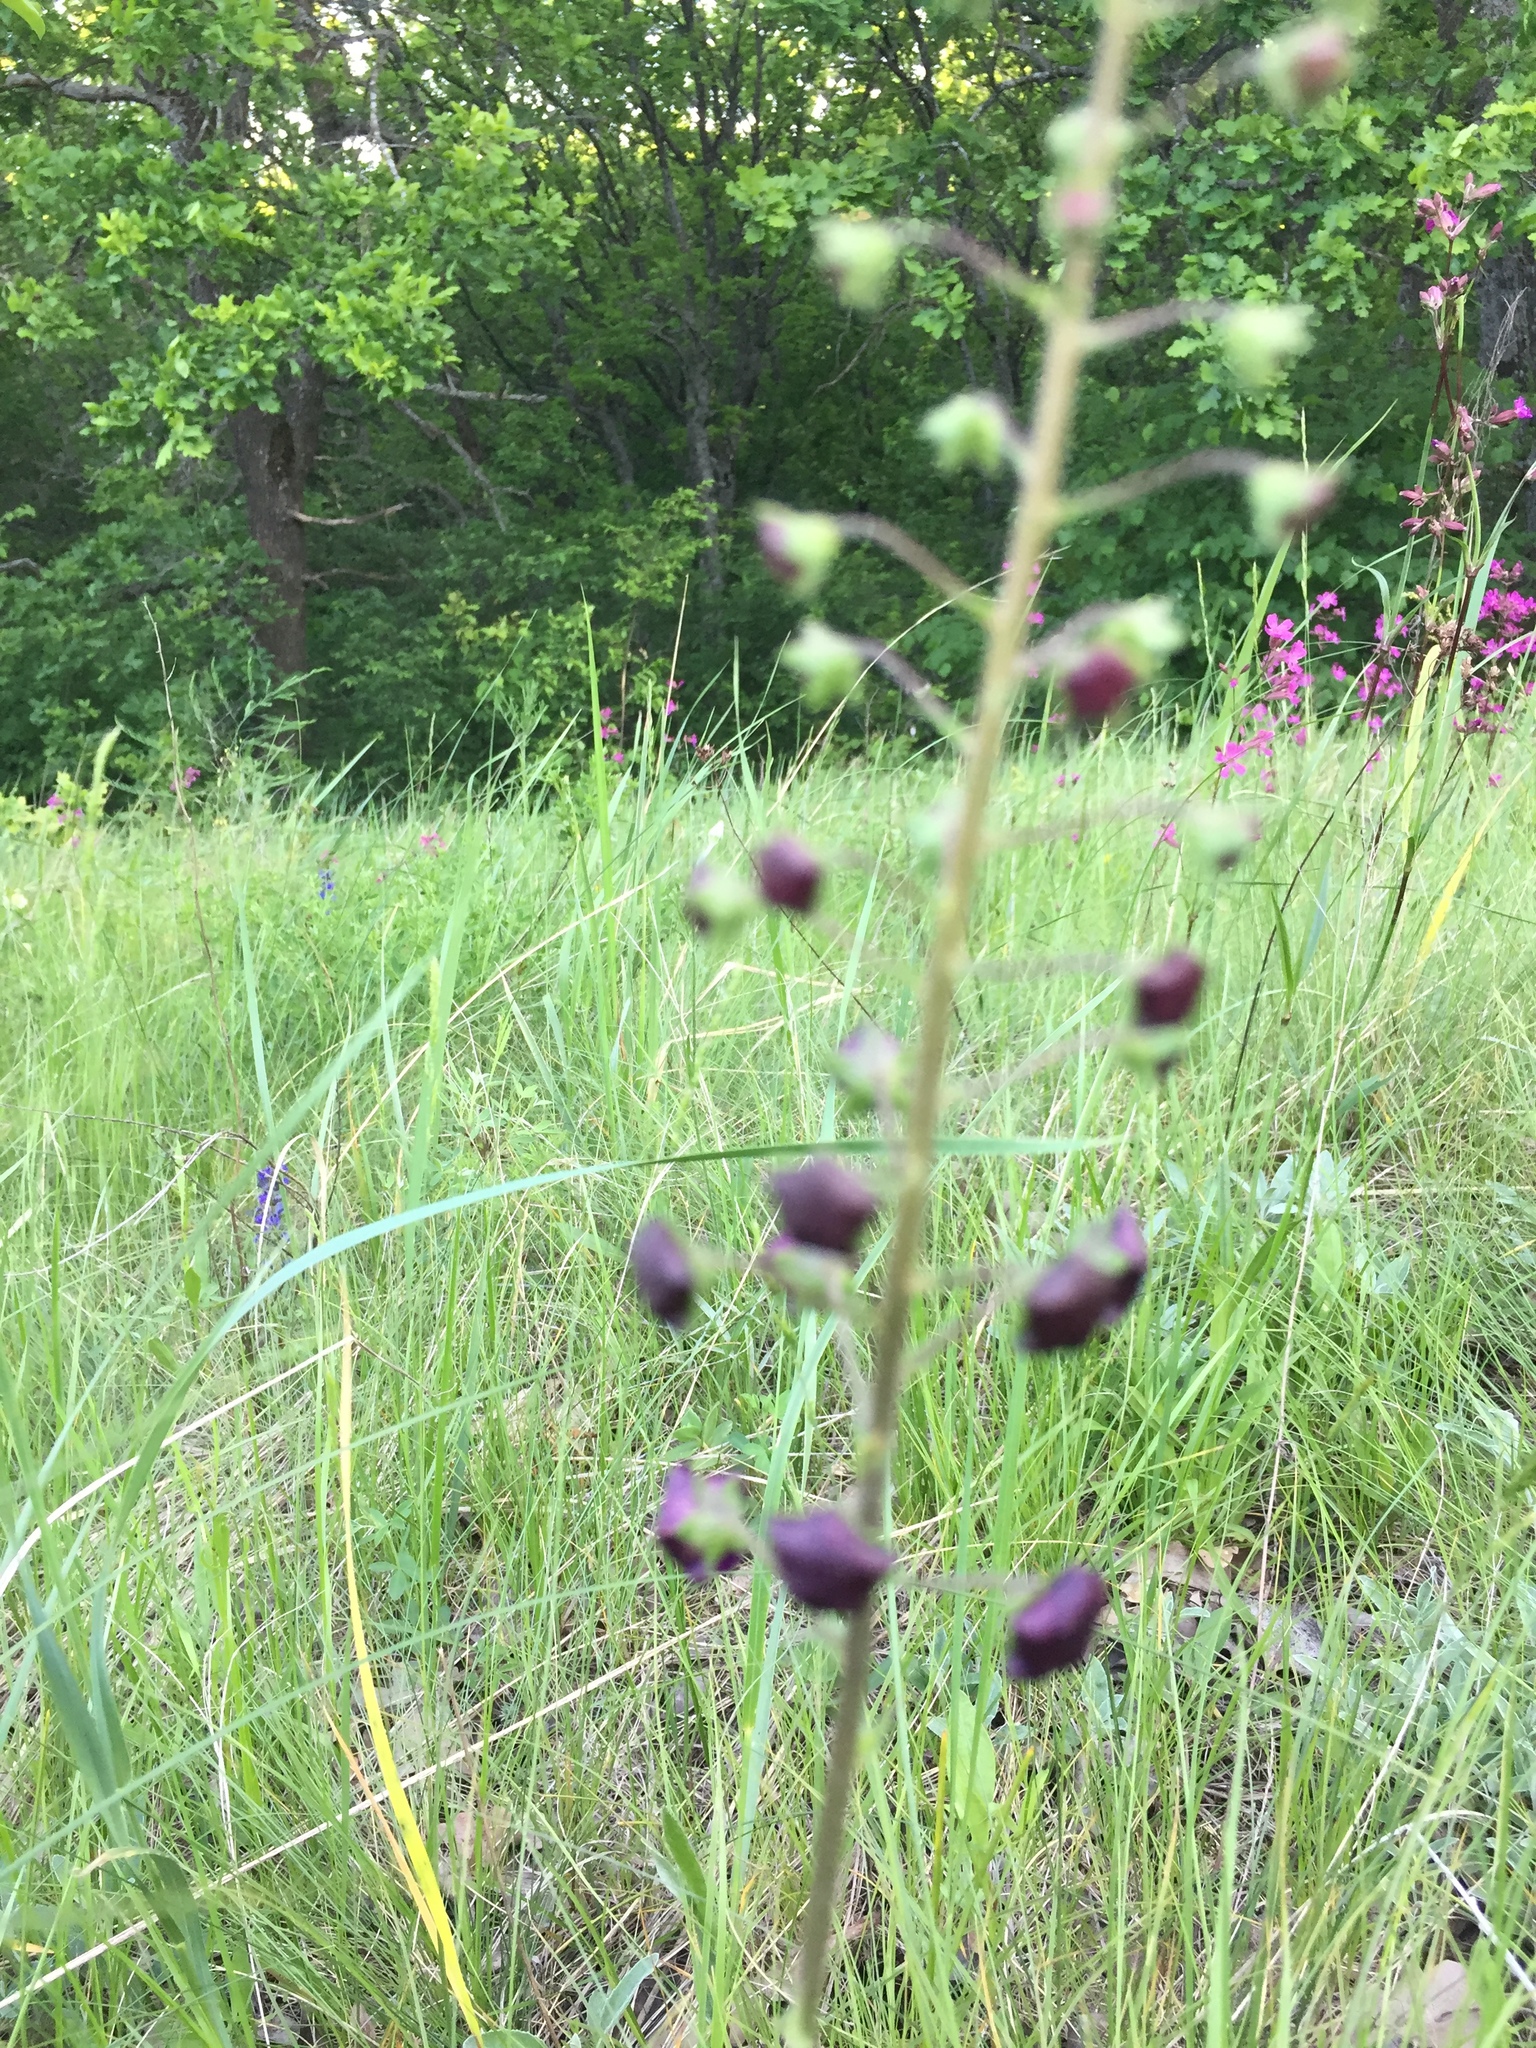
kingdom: Plantae
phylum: Tracheophyta
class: Magnoliopsida
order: Lamiales
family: Scrophulariaceae
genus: Verbascum
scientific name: Verbascum phoeniceum
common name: Purple mullein
